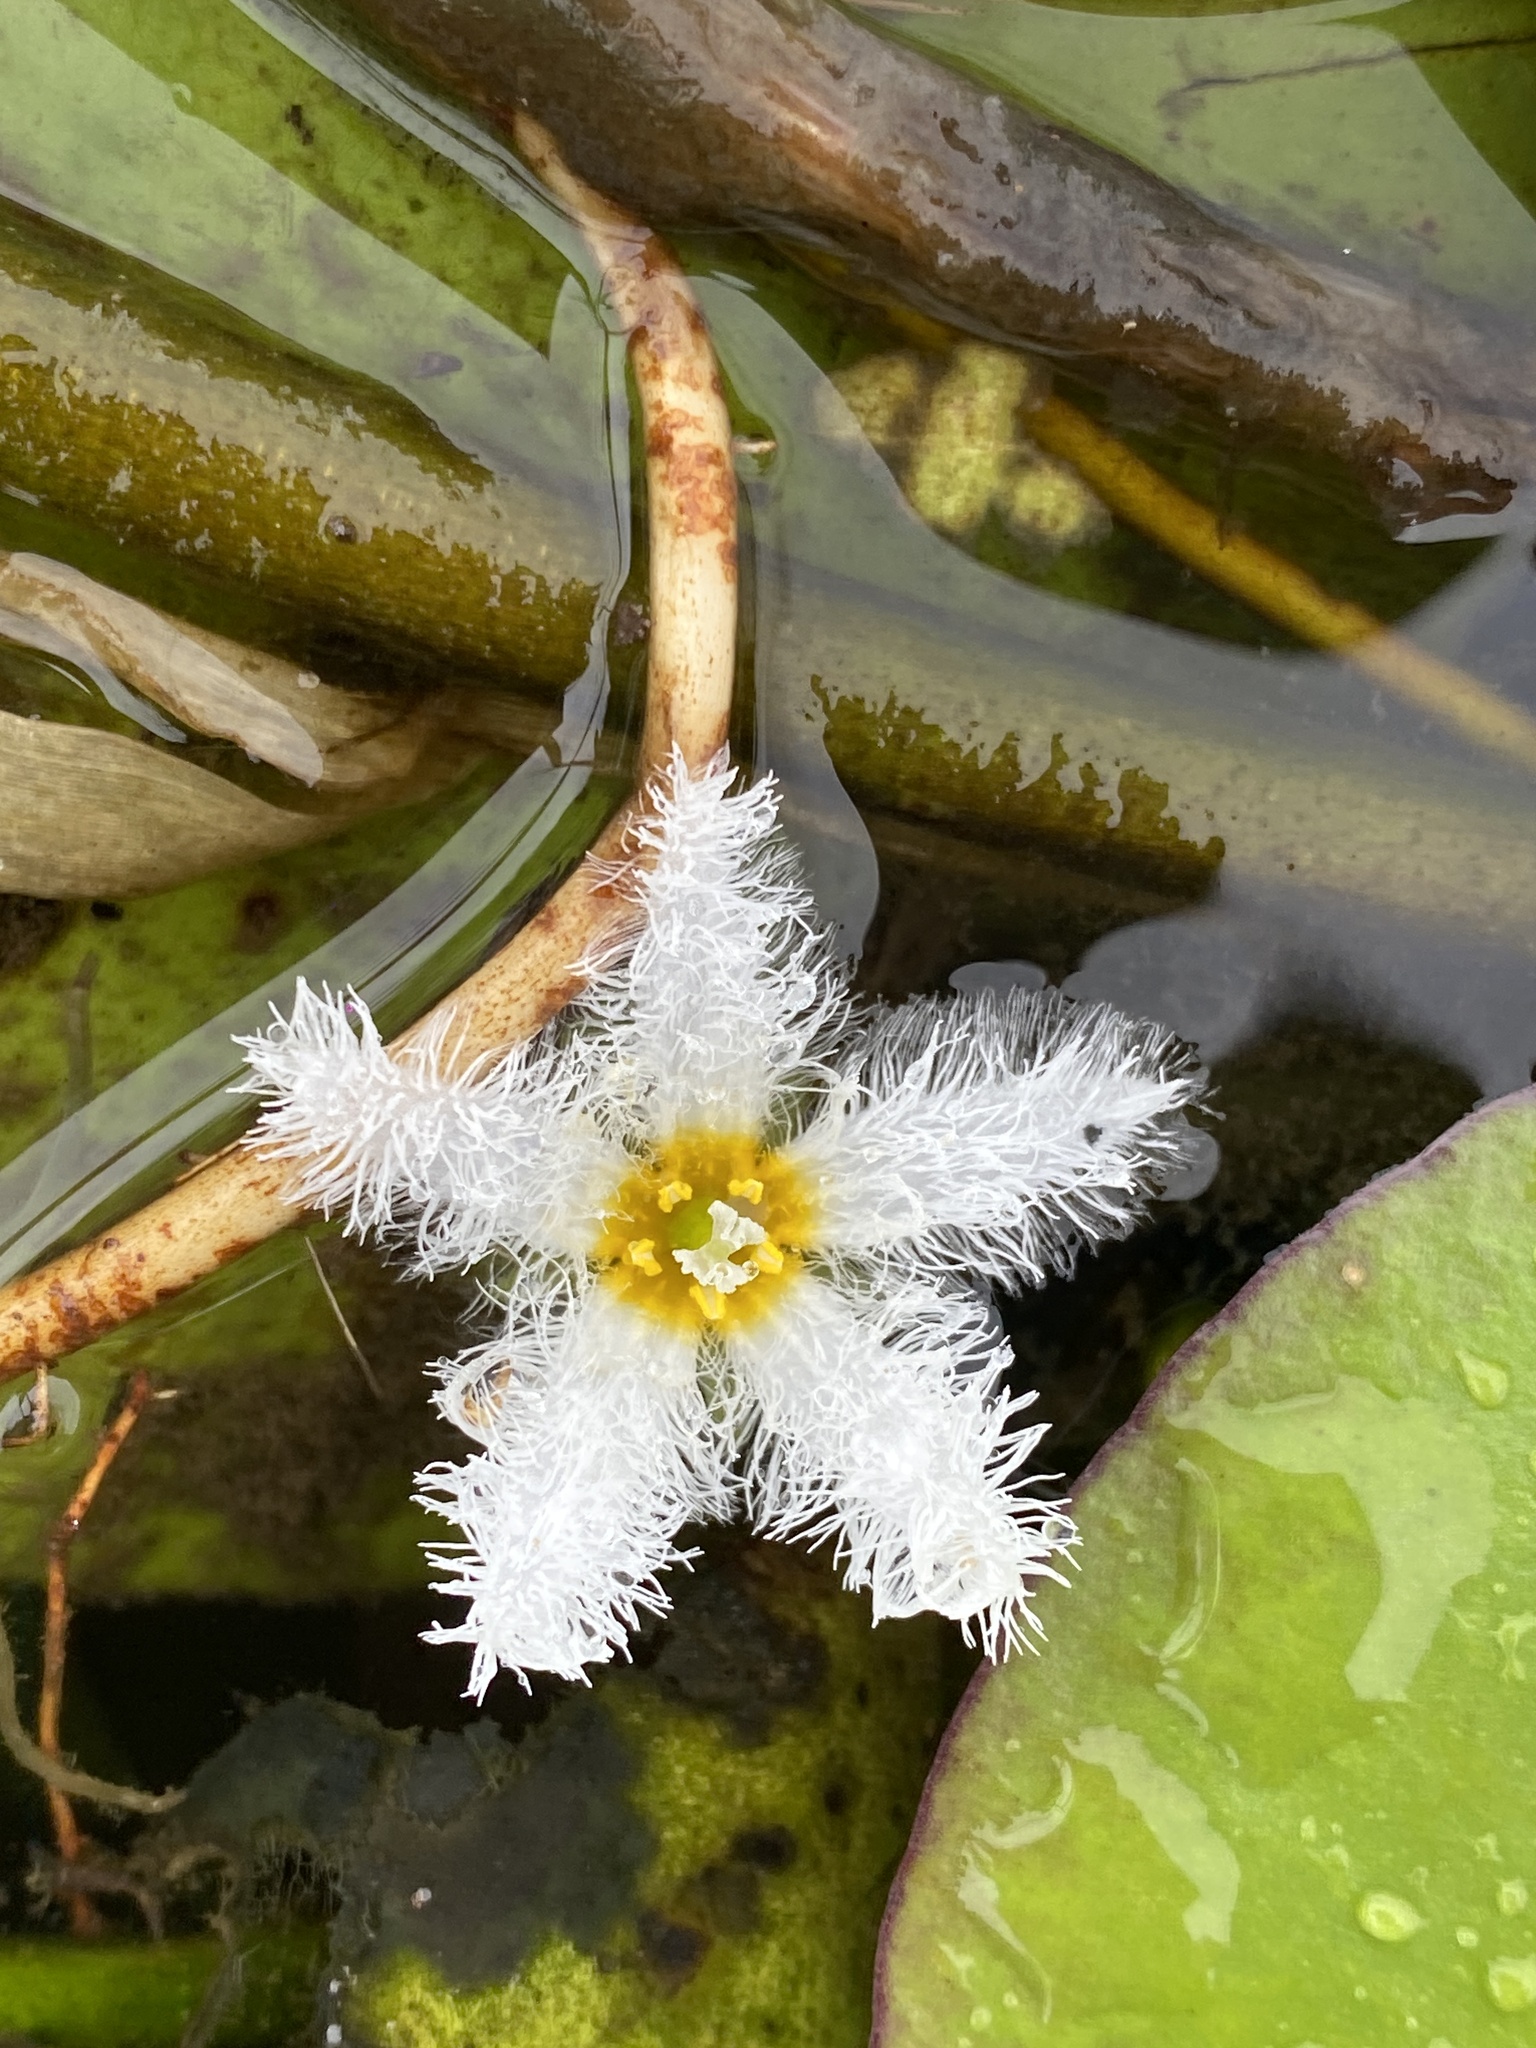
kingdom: Plantae
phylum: Tracheophyta
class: Magnoliopsida
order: Asterales
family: Menyanthaceae
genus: Nymphoides
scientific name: Nymphoides indica
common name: Water-snowflake
